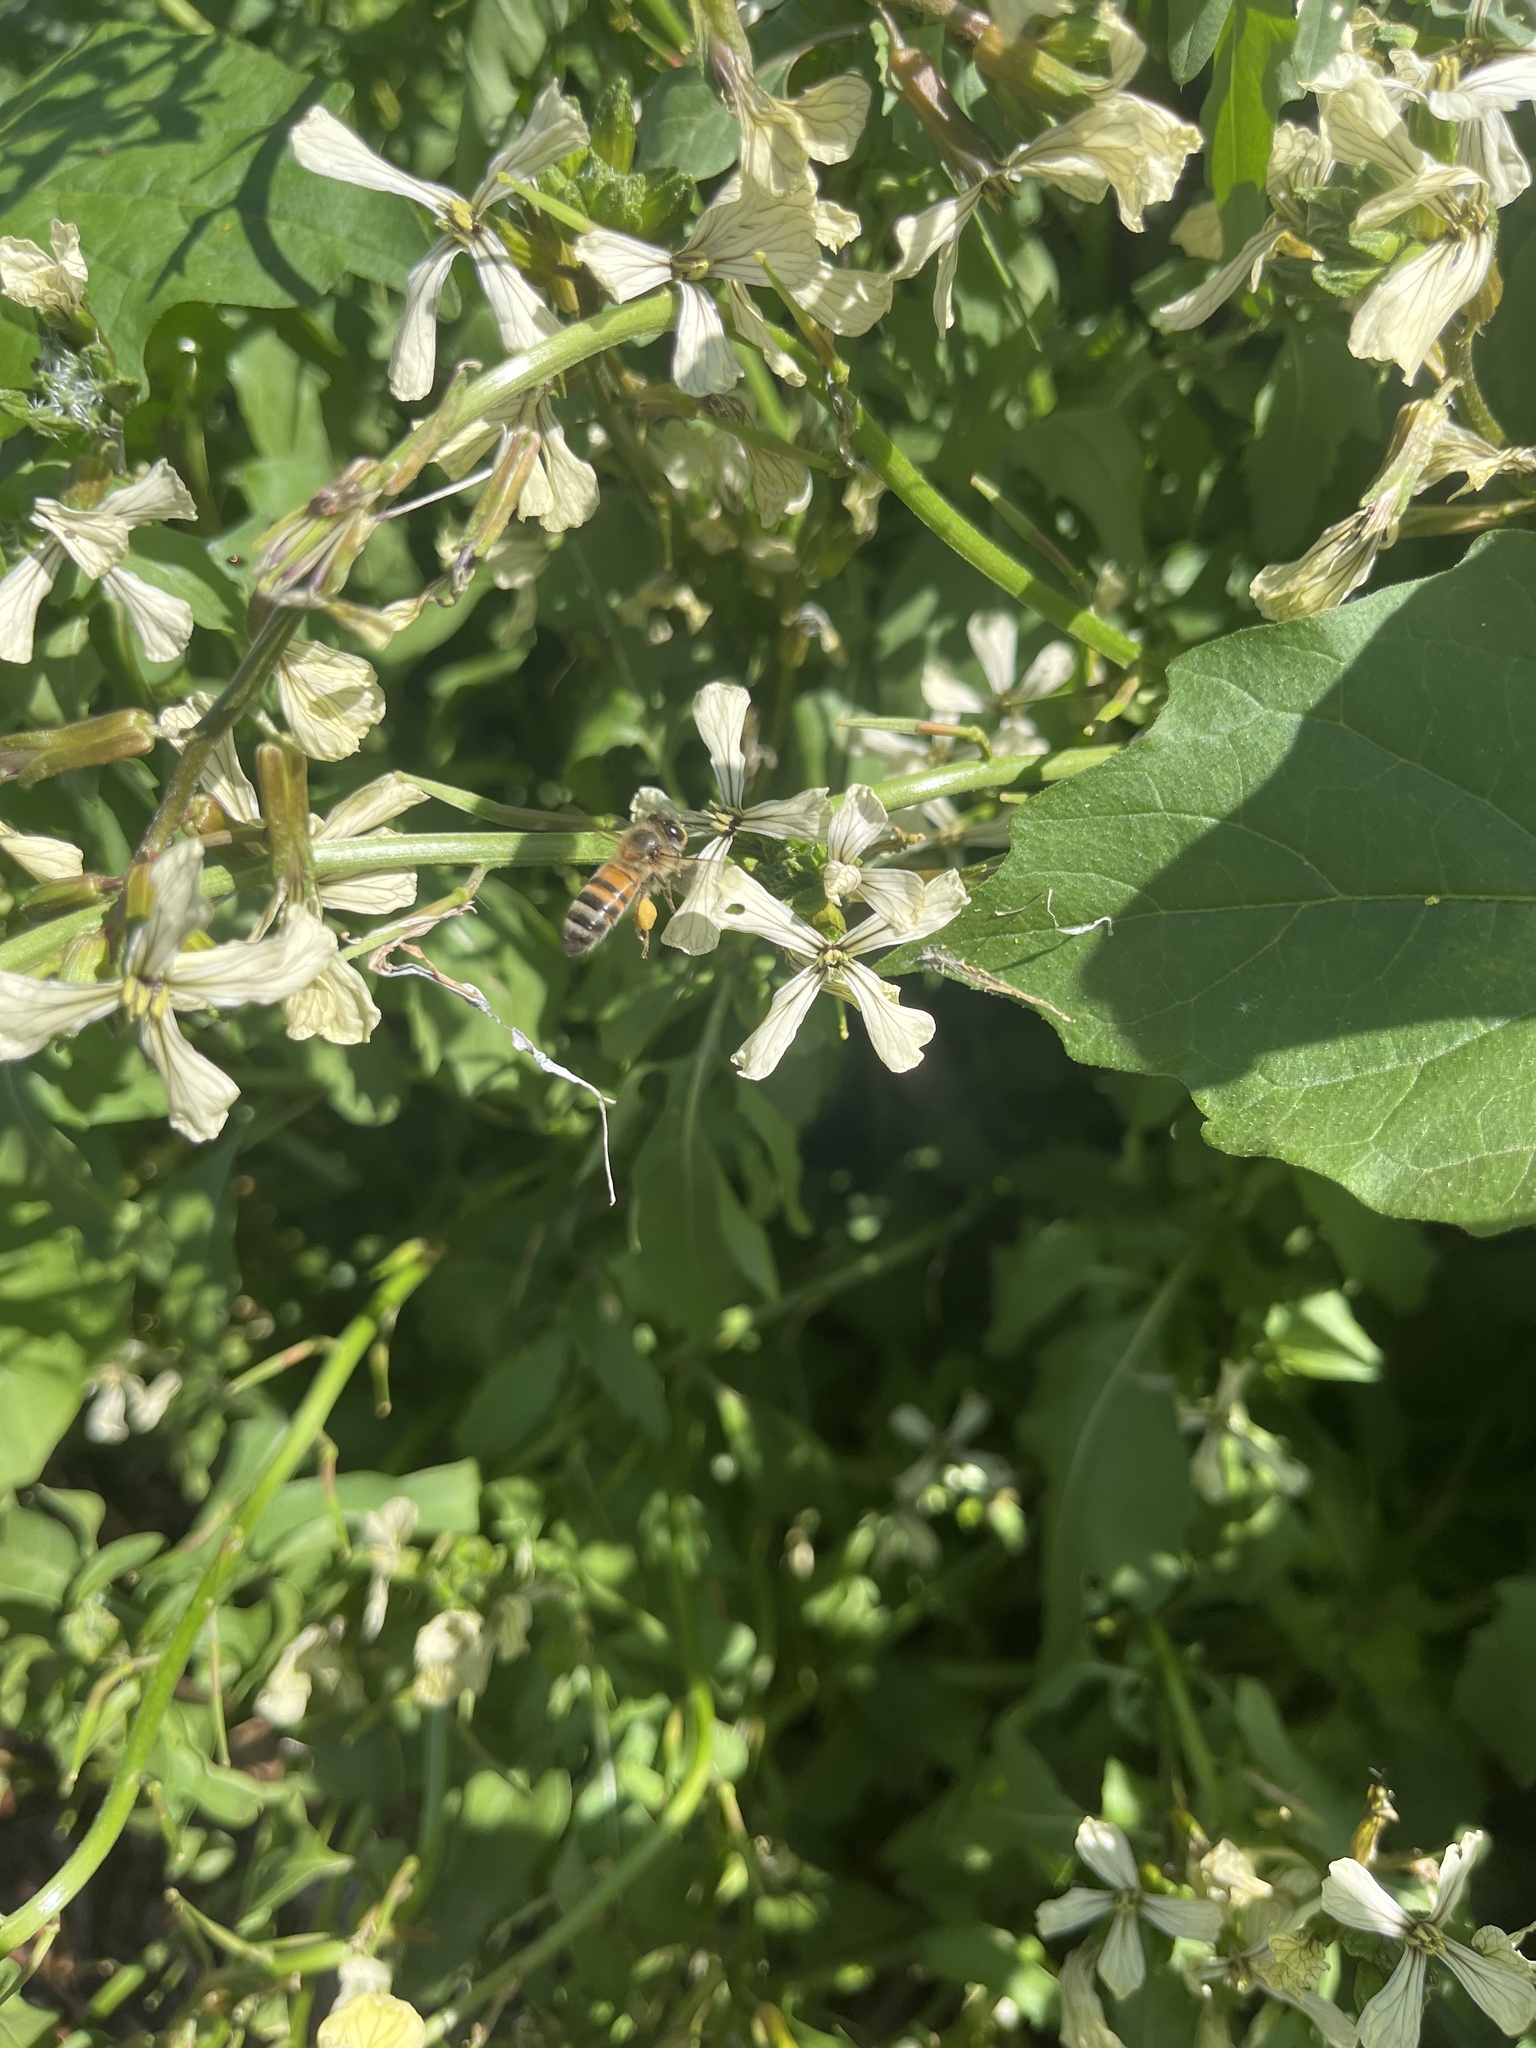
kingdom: Animalia
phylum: Arthropoda
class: Insecta
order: Hymenoptera
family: Apidae
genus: Apis
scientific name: Apis mellifera
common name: Honey bee
